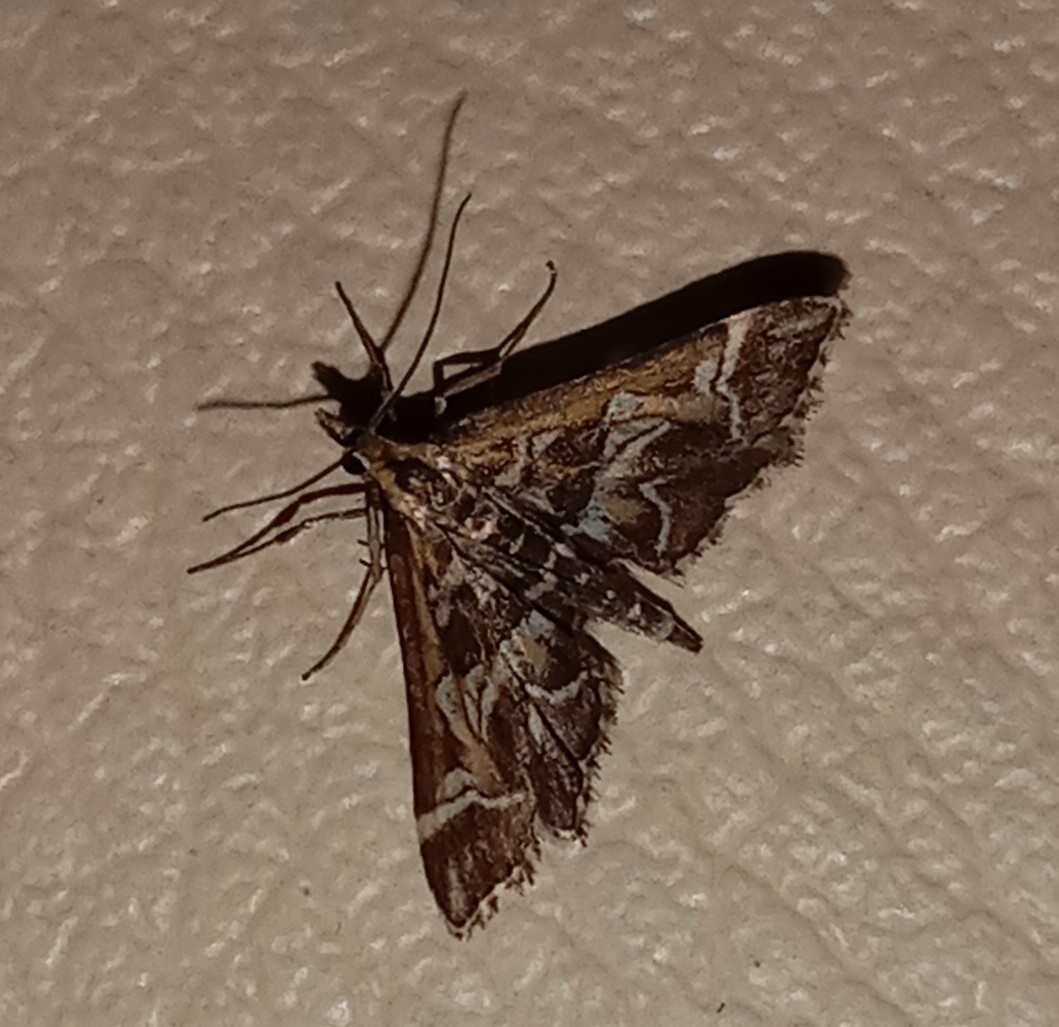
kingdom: Animalia
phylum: Arthropoda
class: Insecta
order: Lepidoptera
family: Crambidae
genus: Diasemia
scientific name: Diasemia reticularis
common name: Lettered china-mark
